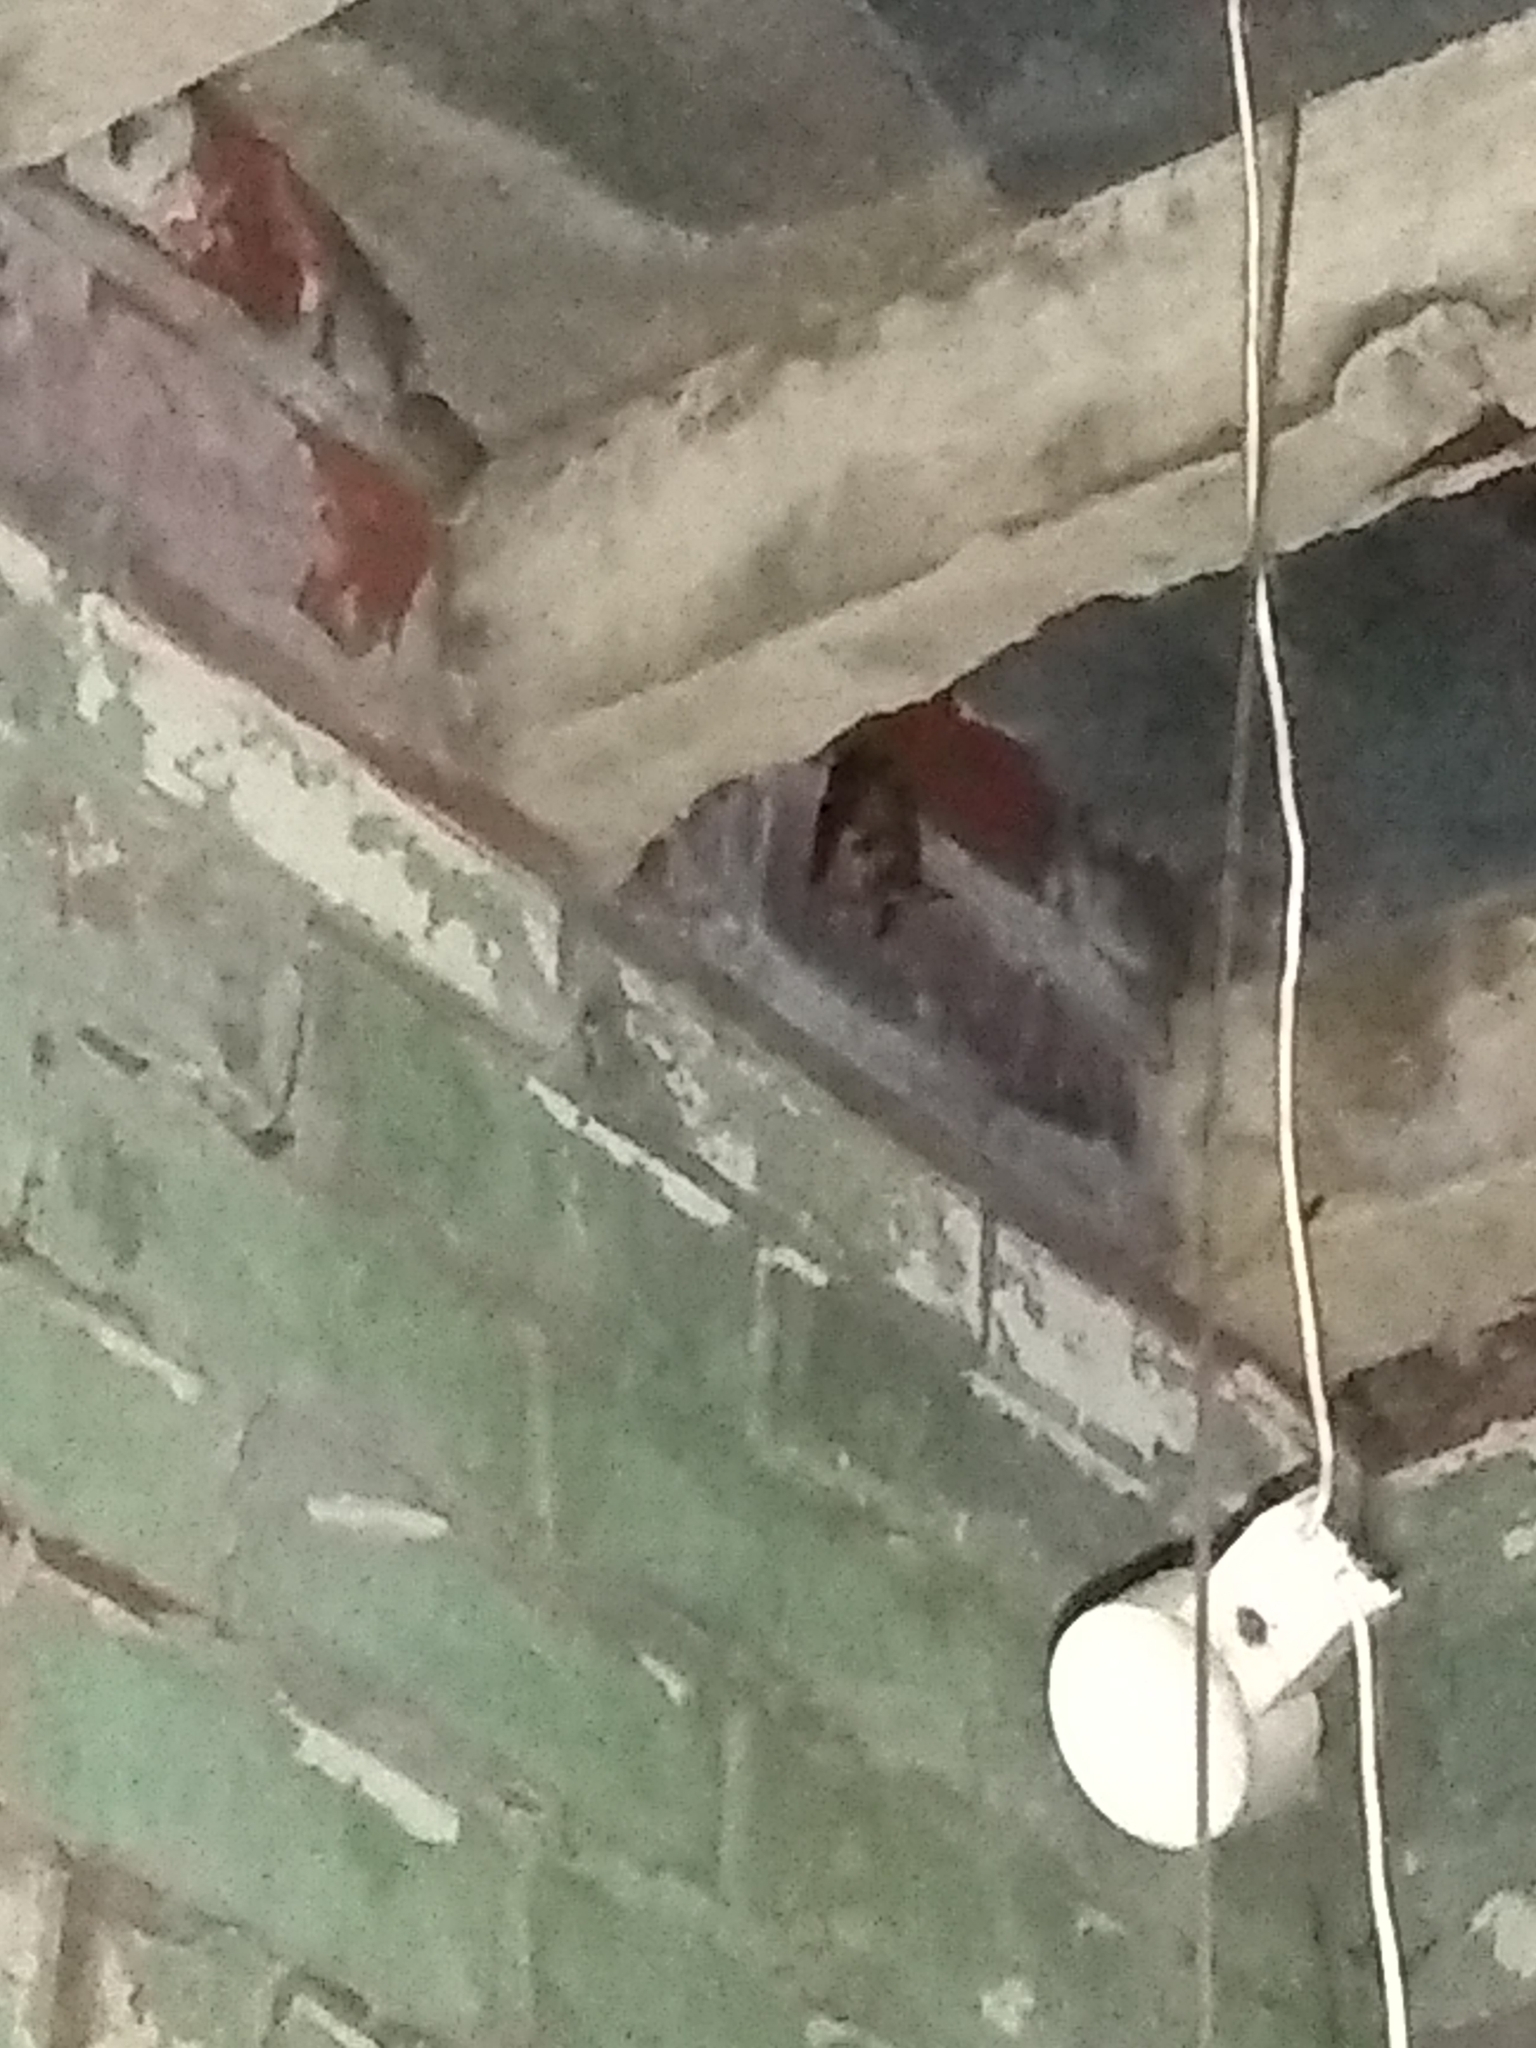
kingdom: Animalia
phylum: Chordata
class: Mammalia
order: Chiroptera
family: Vespertilionidae
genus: Plecotus
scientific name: Plecotus auritus
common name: Brown long-eared bat
